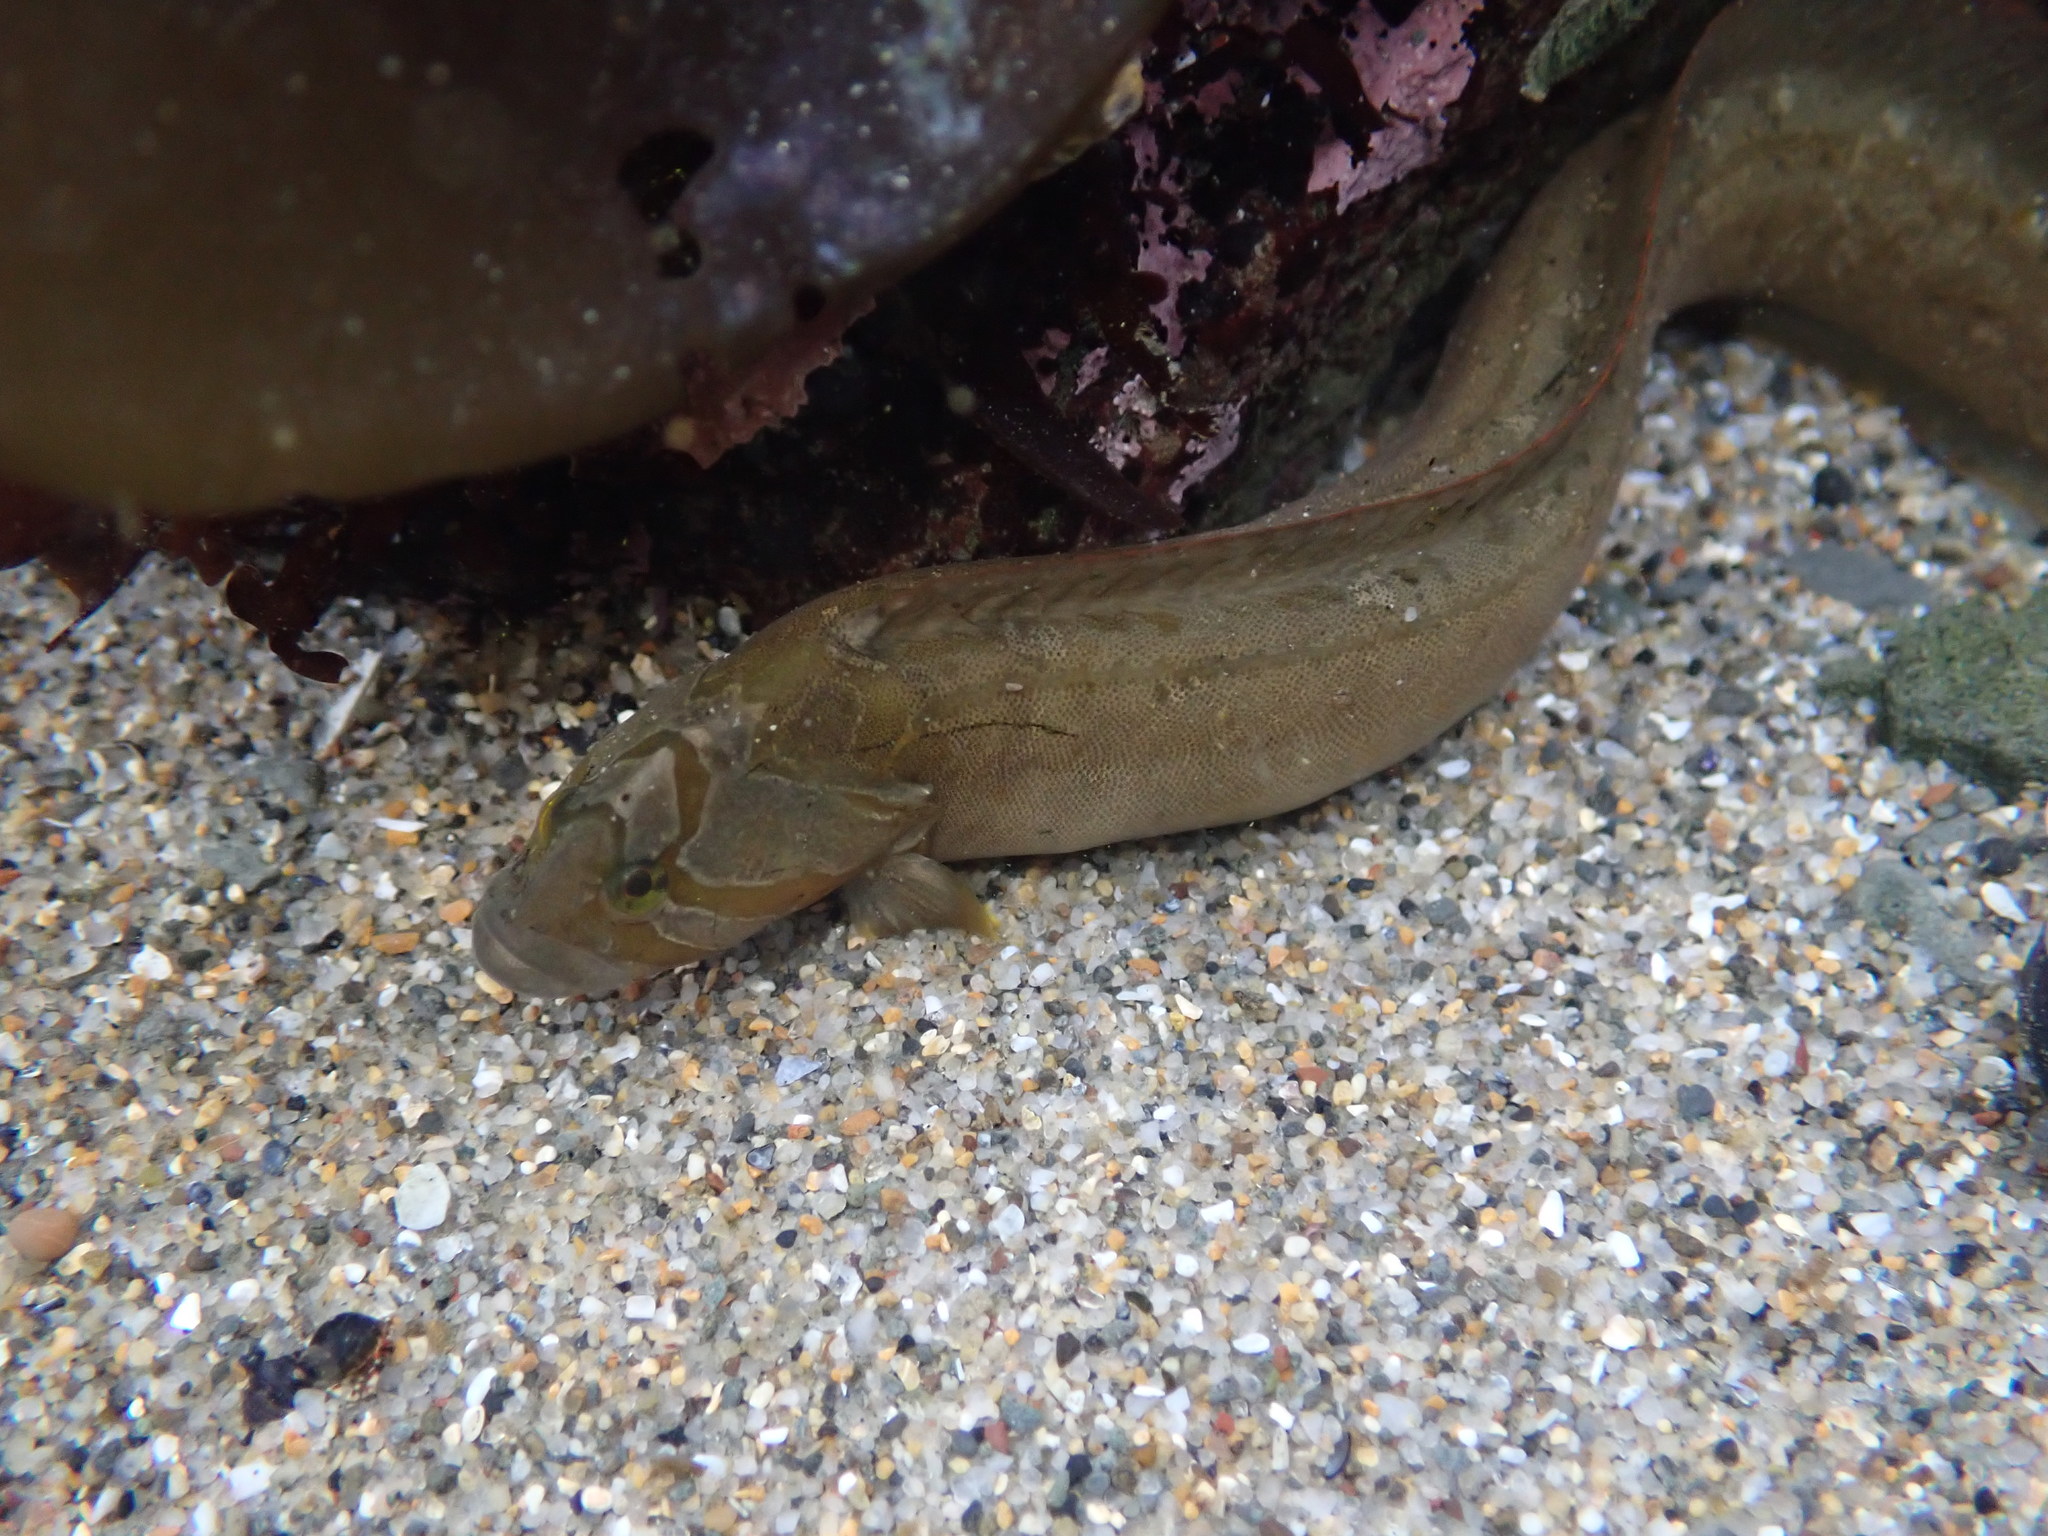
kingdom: Animalia
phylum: Chordata
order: Perciformes
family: Stichaeidae
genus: Cebidichthys
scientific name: Cebidichthys violaceus
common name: Monkeyface prickleback
